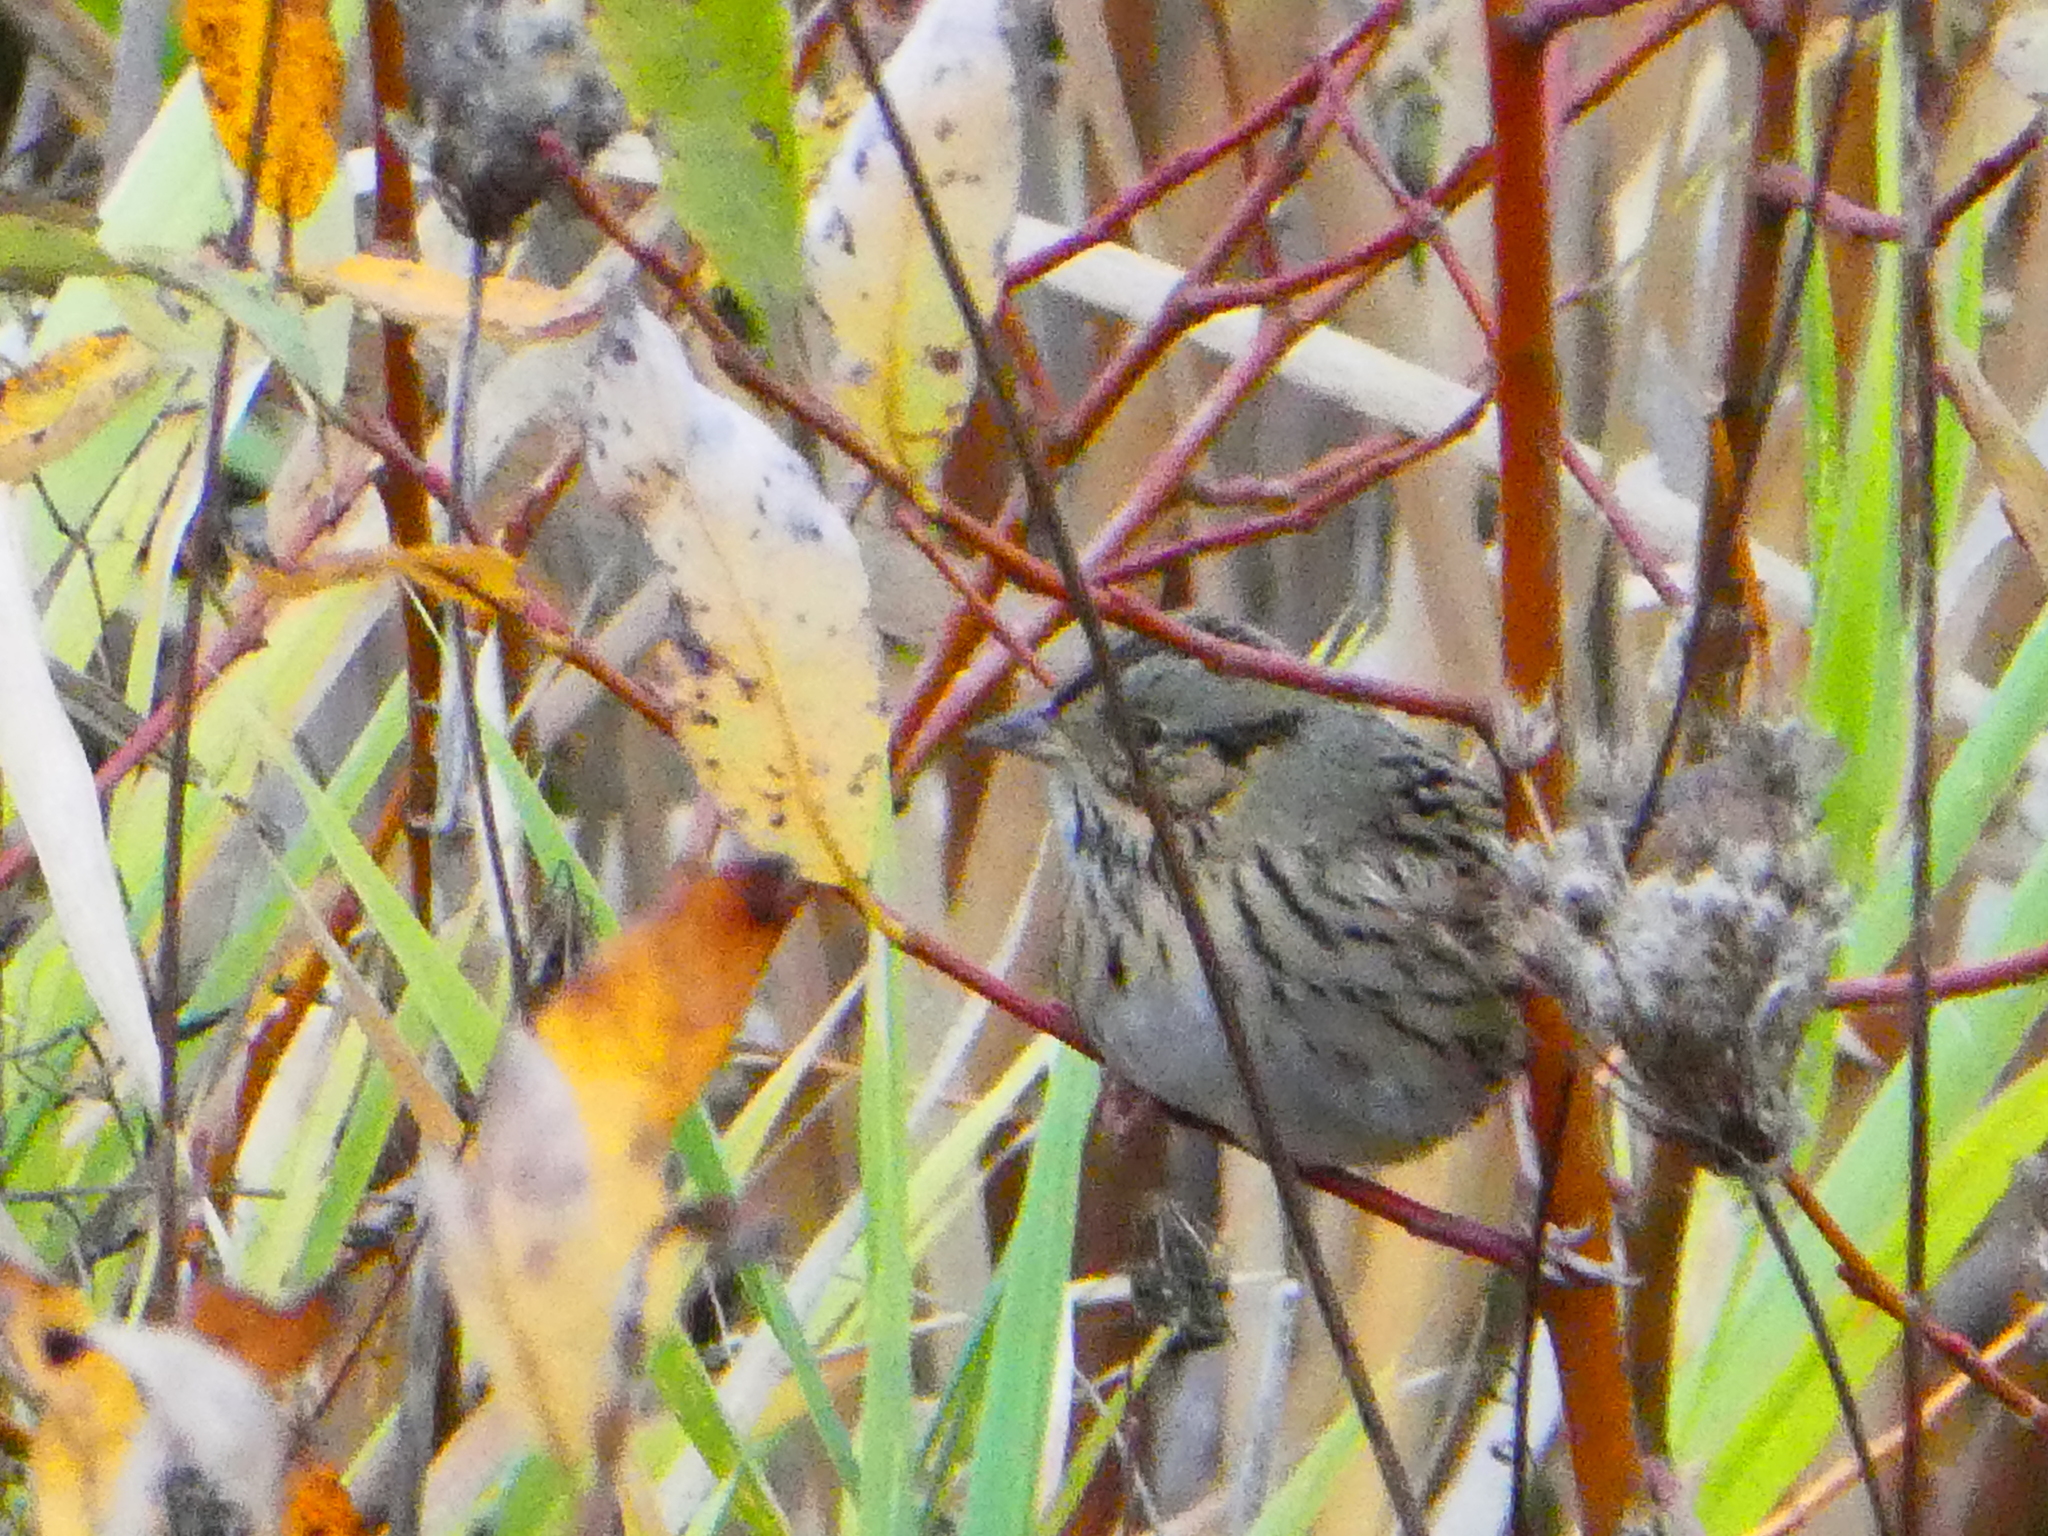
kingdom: Animalia
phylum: Chordata
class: Aves
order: Passeriformes
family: Passerellidae
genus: Melospiza
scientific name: Melospiza lincolnii
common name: Lincoln's sparrow
